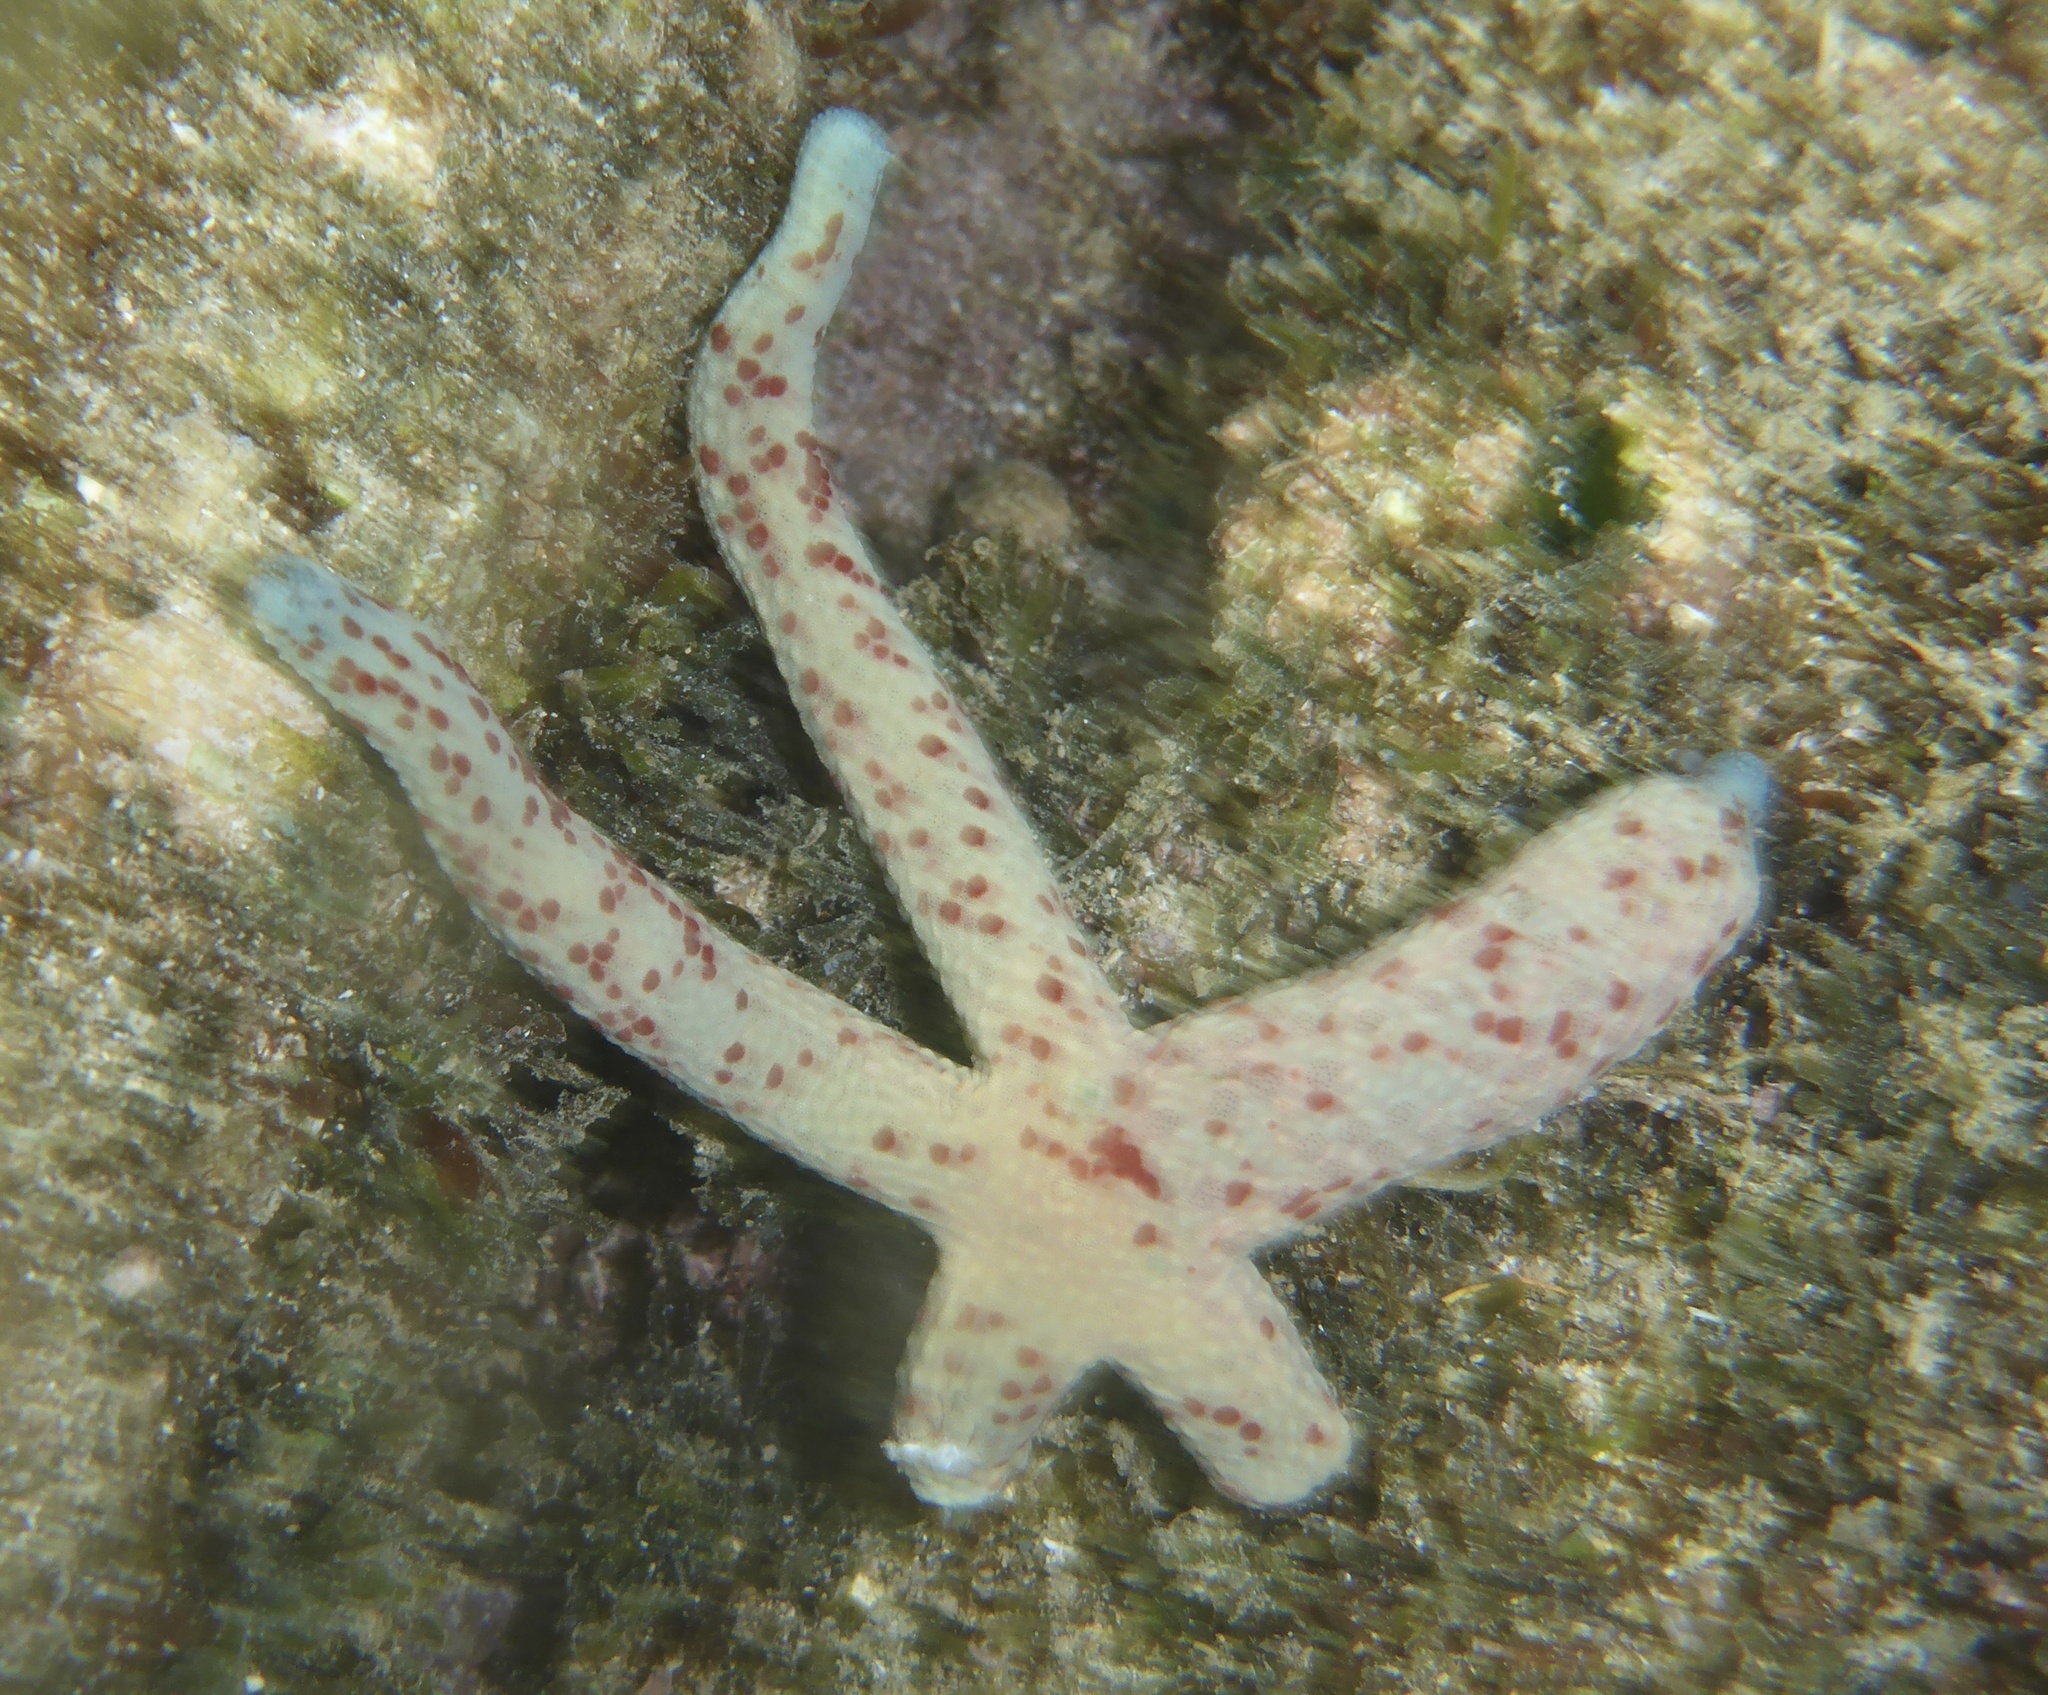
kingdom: Animalia
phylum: Echinodermata
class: Asteroidea
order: Valvatida
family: Ophidiasteridae
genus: Linckia
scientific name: Linckia multifora
